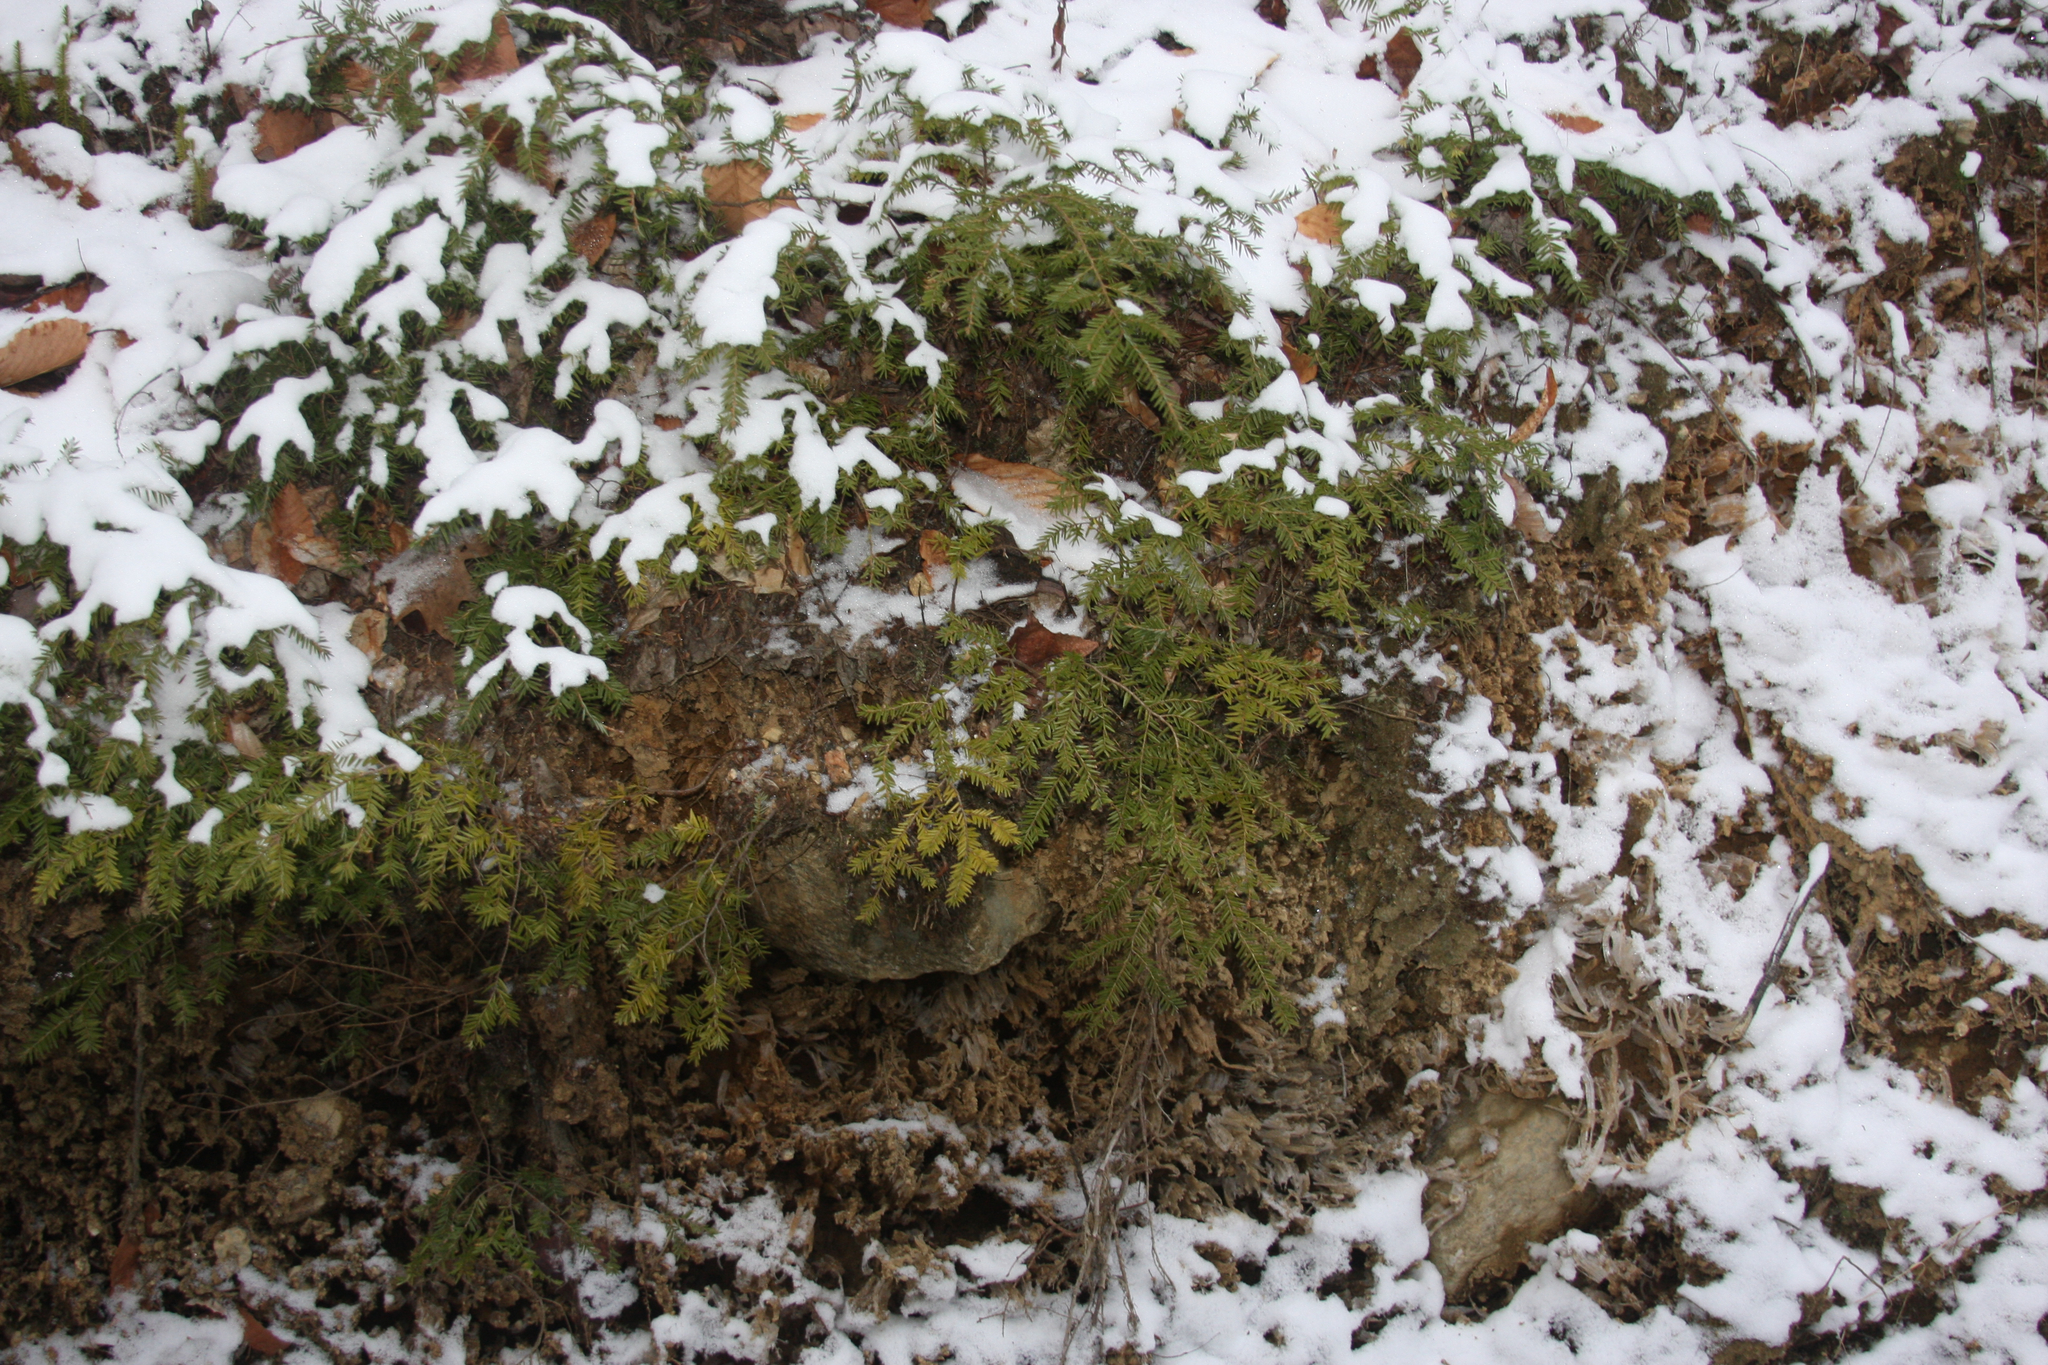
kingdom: Plantae
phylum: Tracheophyta
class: Pinopsida
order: Pinales
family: Pinaceae
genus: Tsuga
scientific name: Tsuga canadensis
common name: Eastern hemlock
